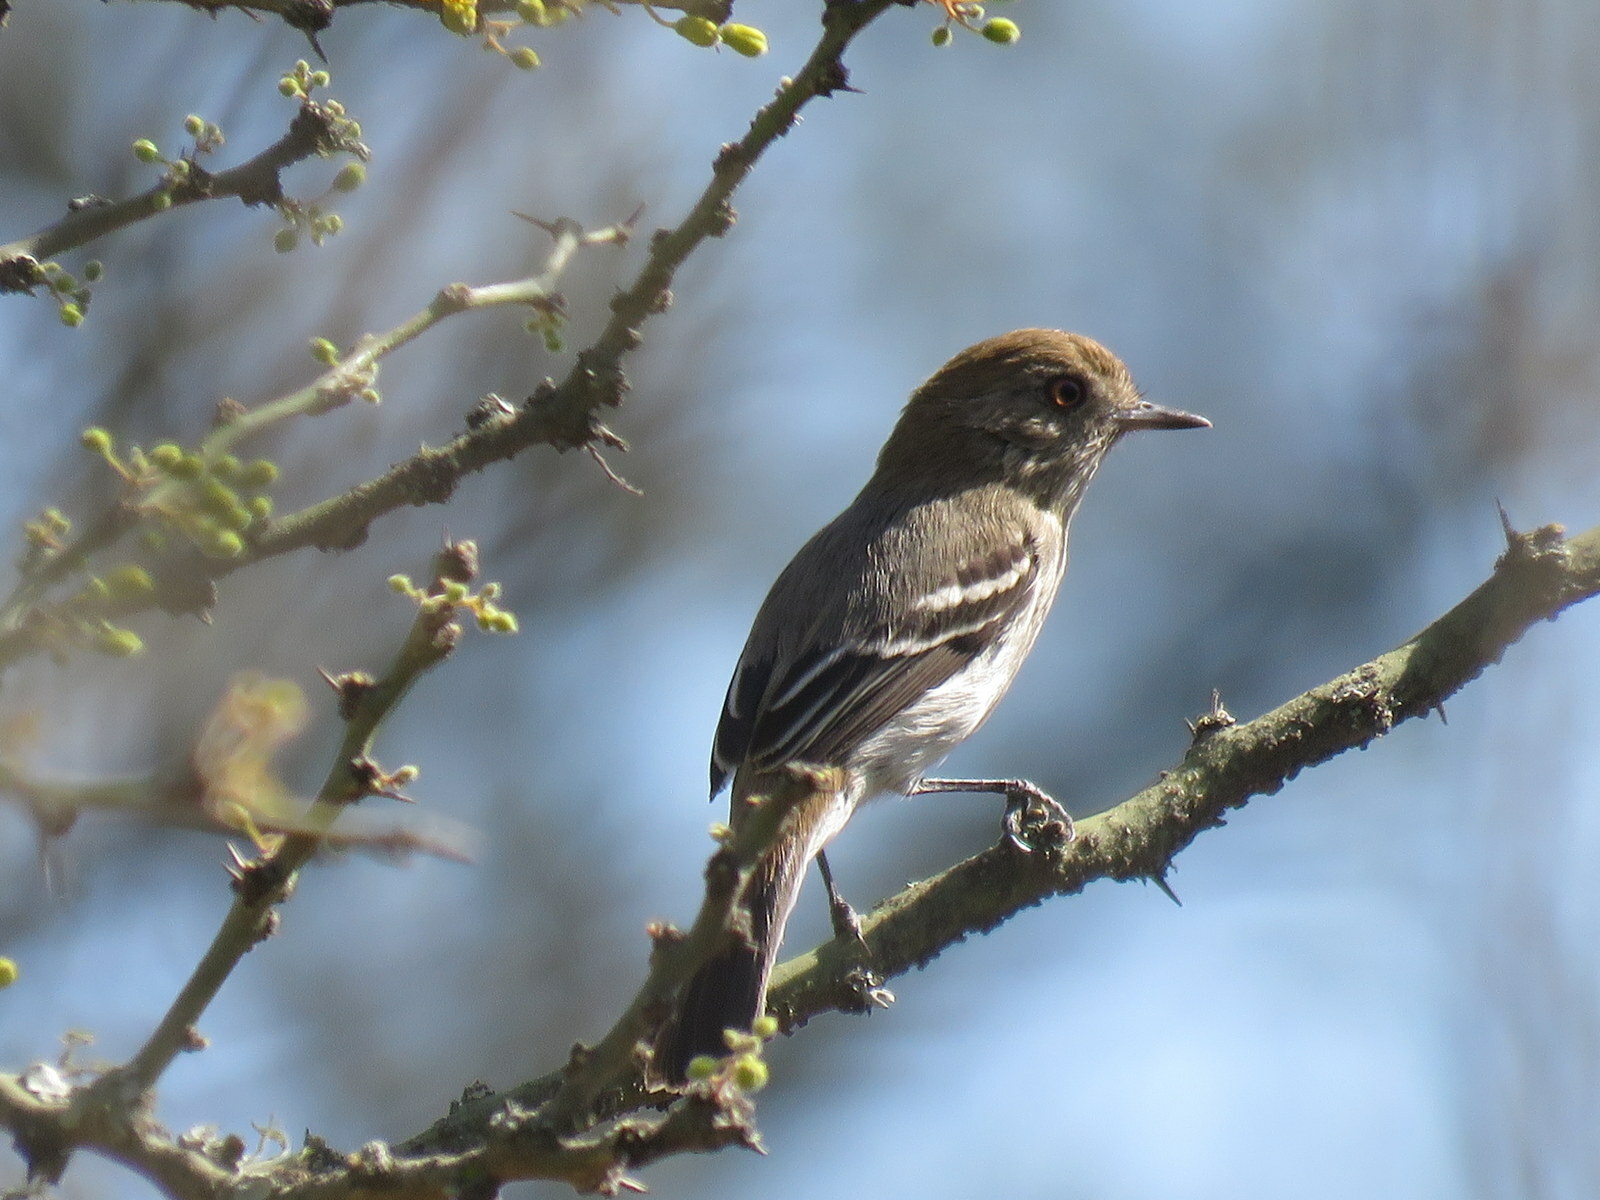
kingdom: Animalia
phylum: Chordata
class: Aves
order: Passeriformes
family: Tyrannidae
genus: Knipolegus
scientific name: Knipolegus striaticeps
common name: Cinereous tyrant
